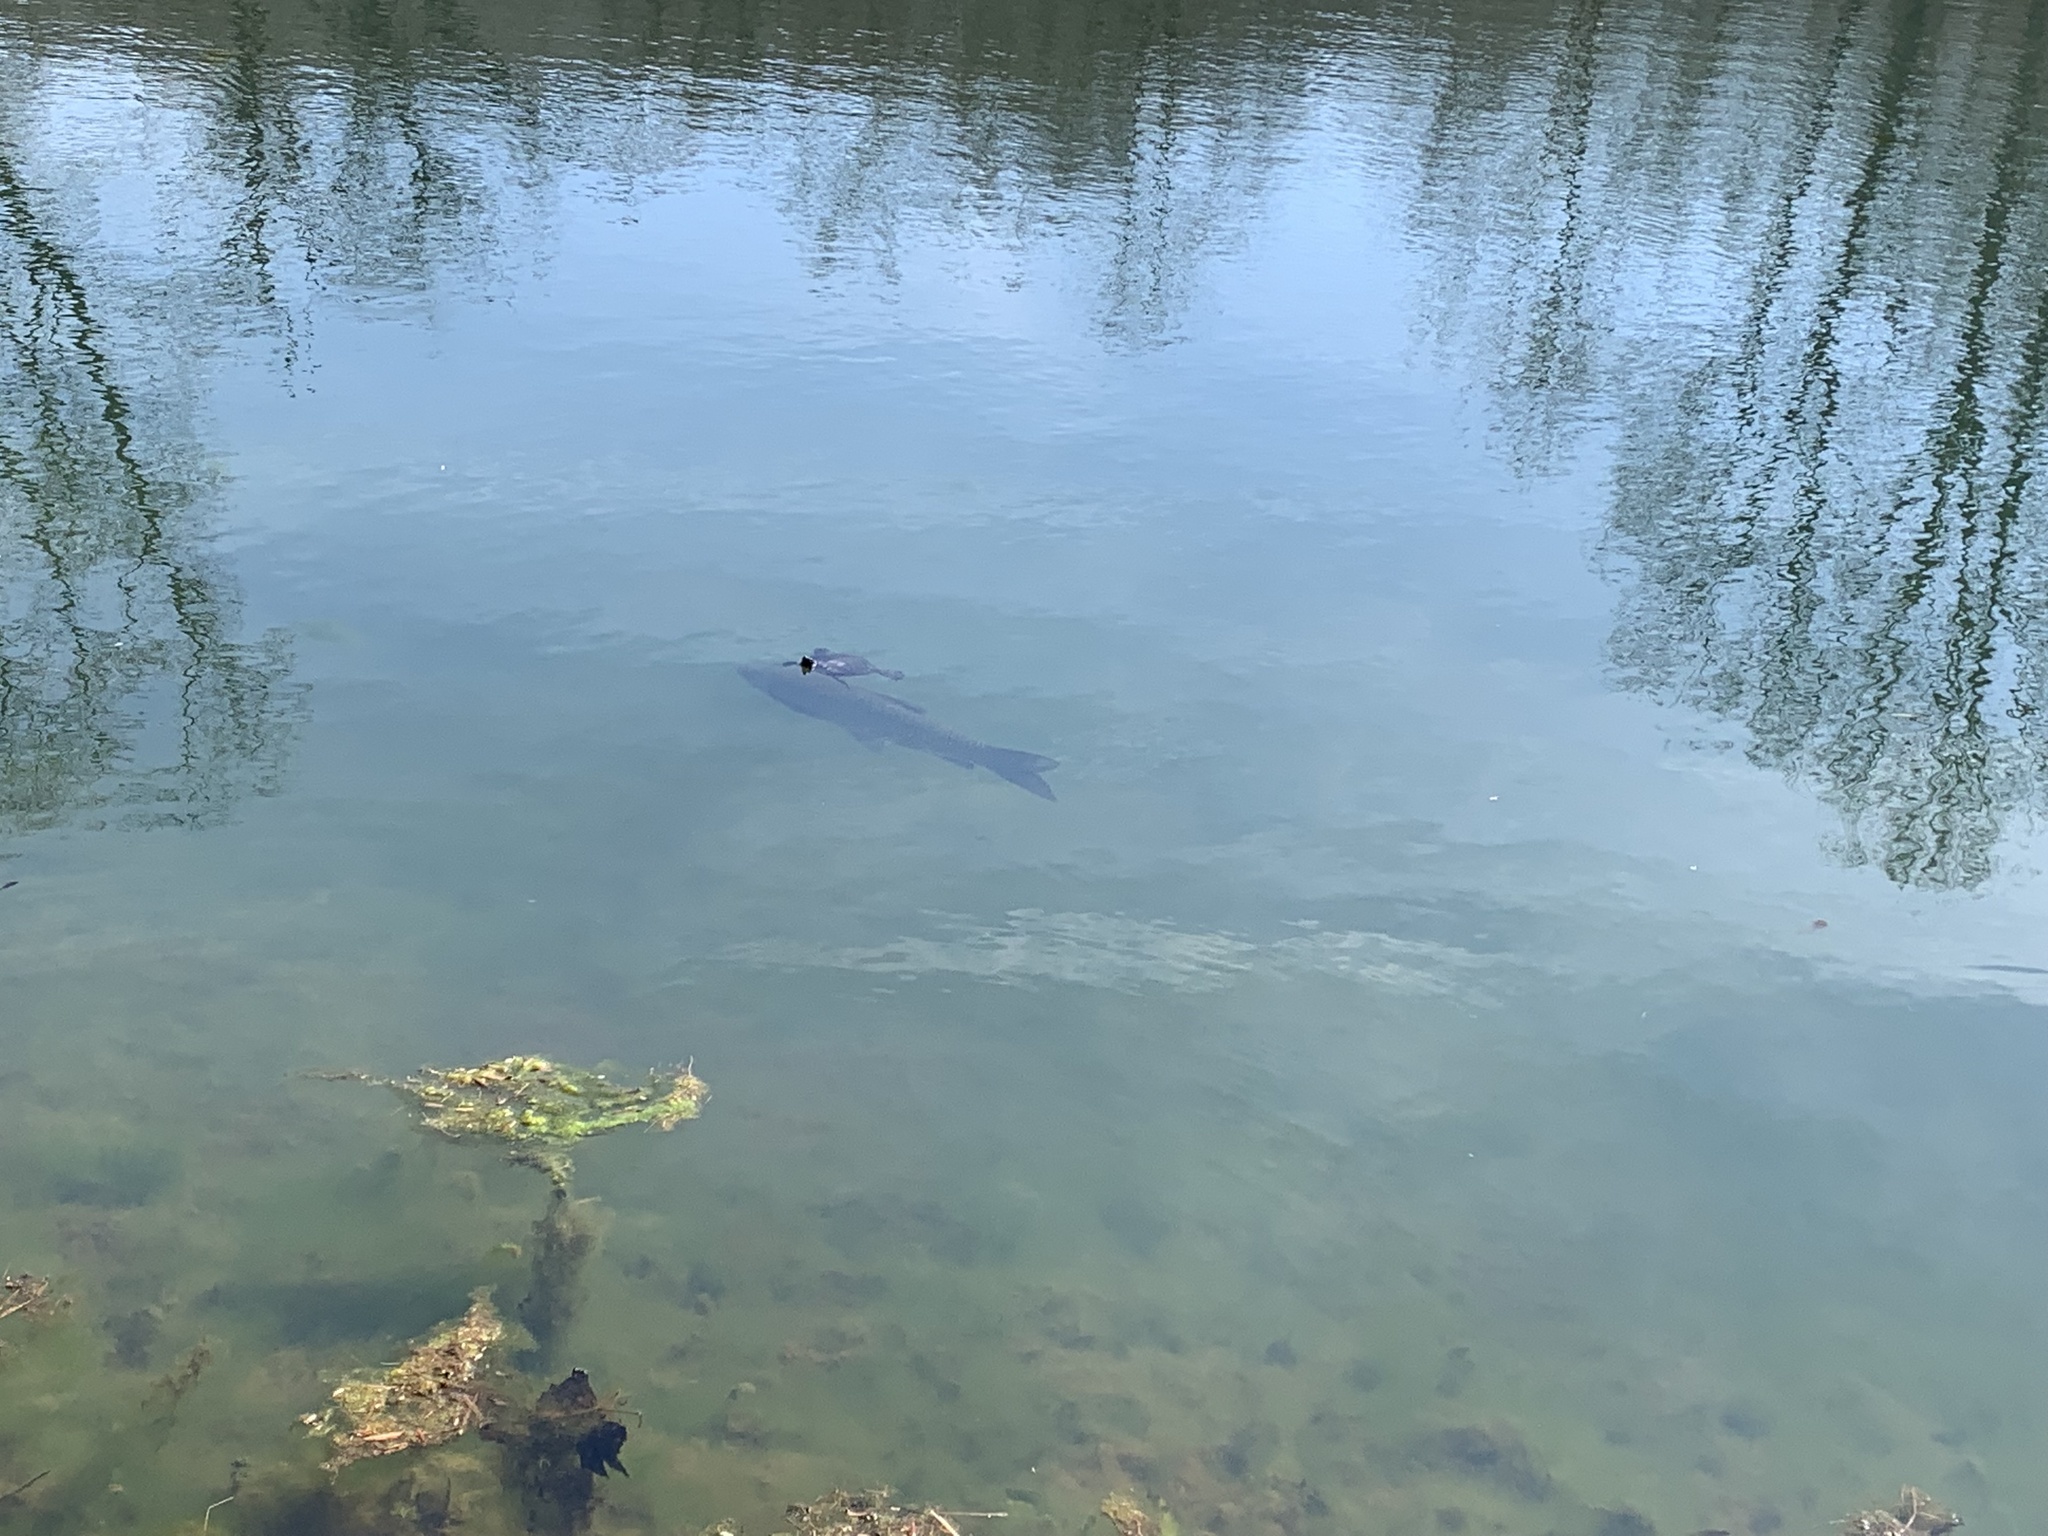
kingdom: Animalia
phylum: Chordata
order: Cypriniformes
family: Cyprinidae
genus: Ctenopharyngodon
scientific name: Ctenopharyngodon idella
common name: Grass carp
